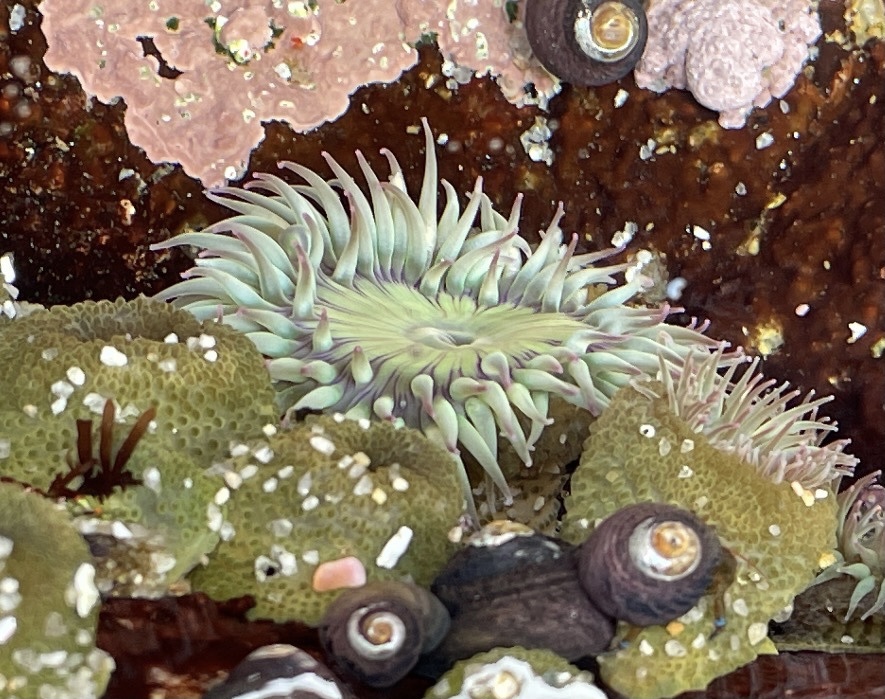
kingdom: Animalia
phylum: Cnidaria
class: Anthozoa
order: Actiniaria
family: Actiniidae
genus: Anthopleura
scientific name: Anthopleura elegantissima
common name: Clonal anemone
